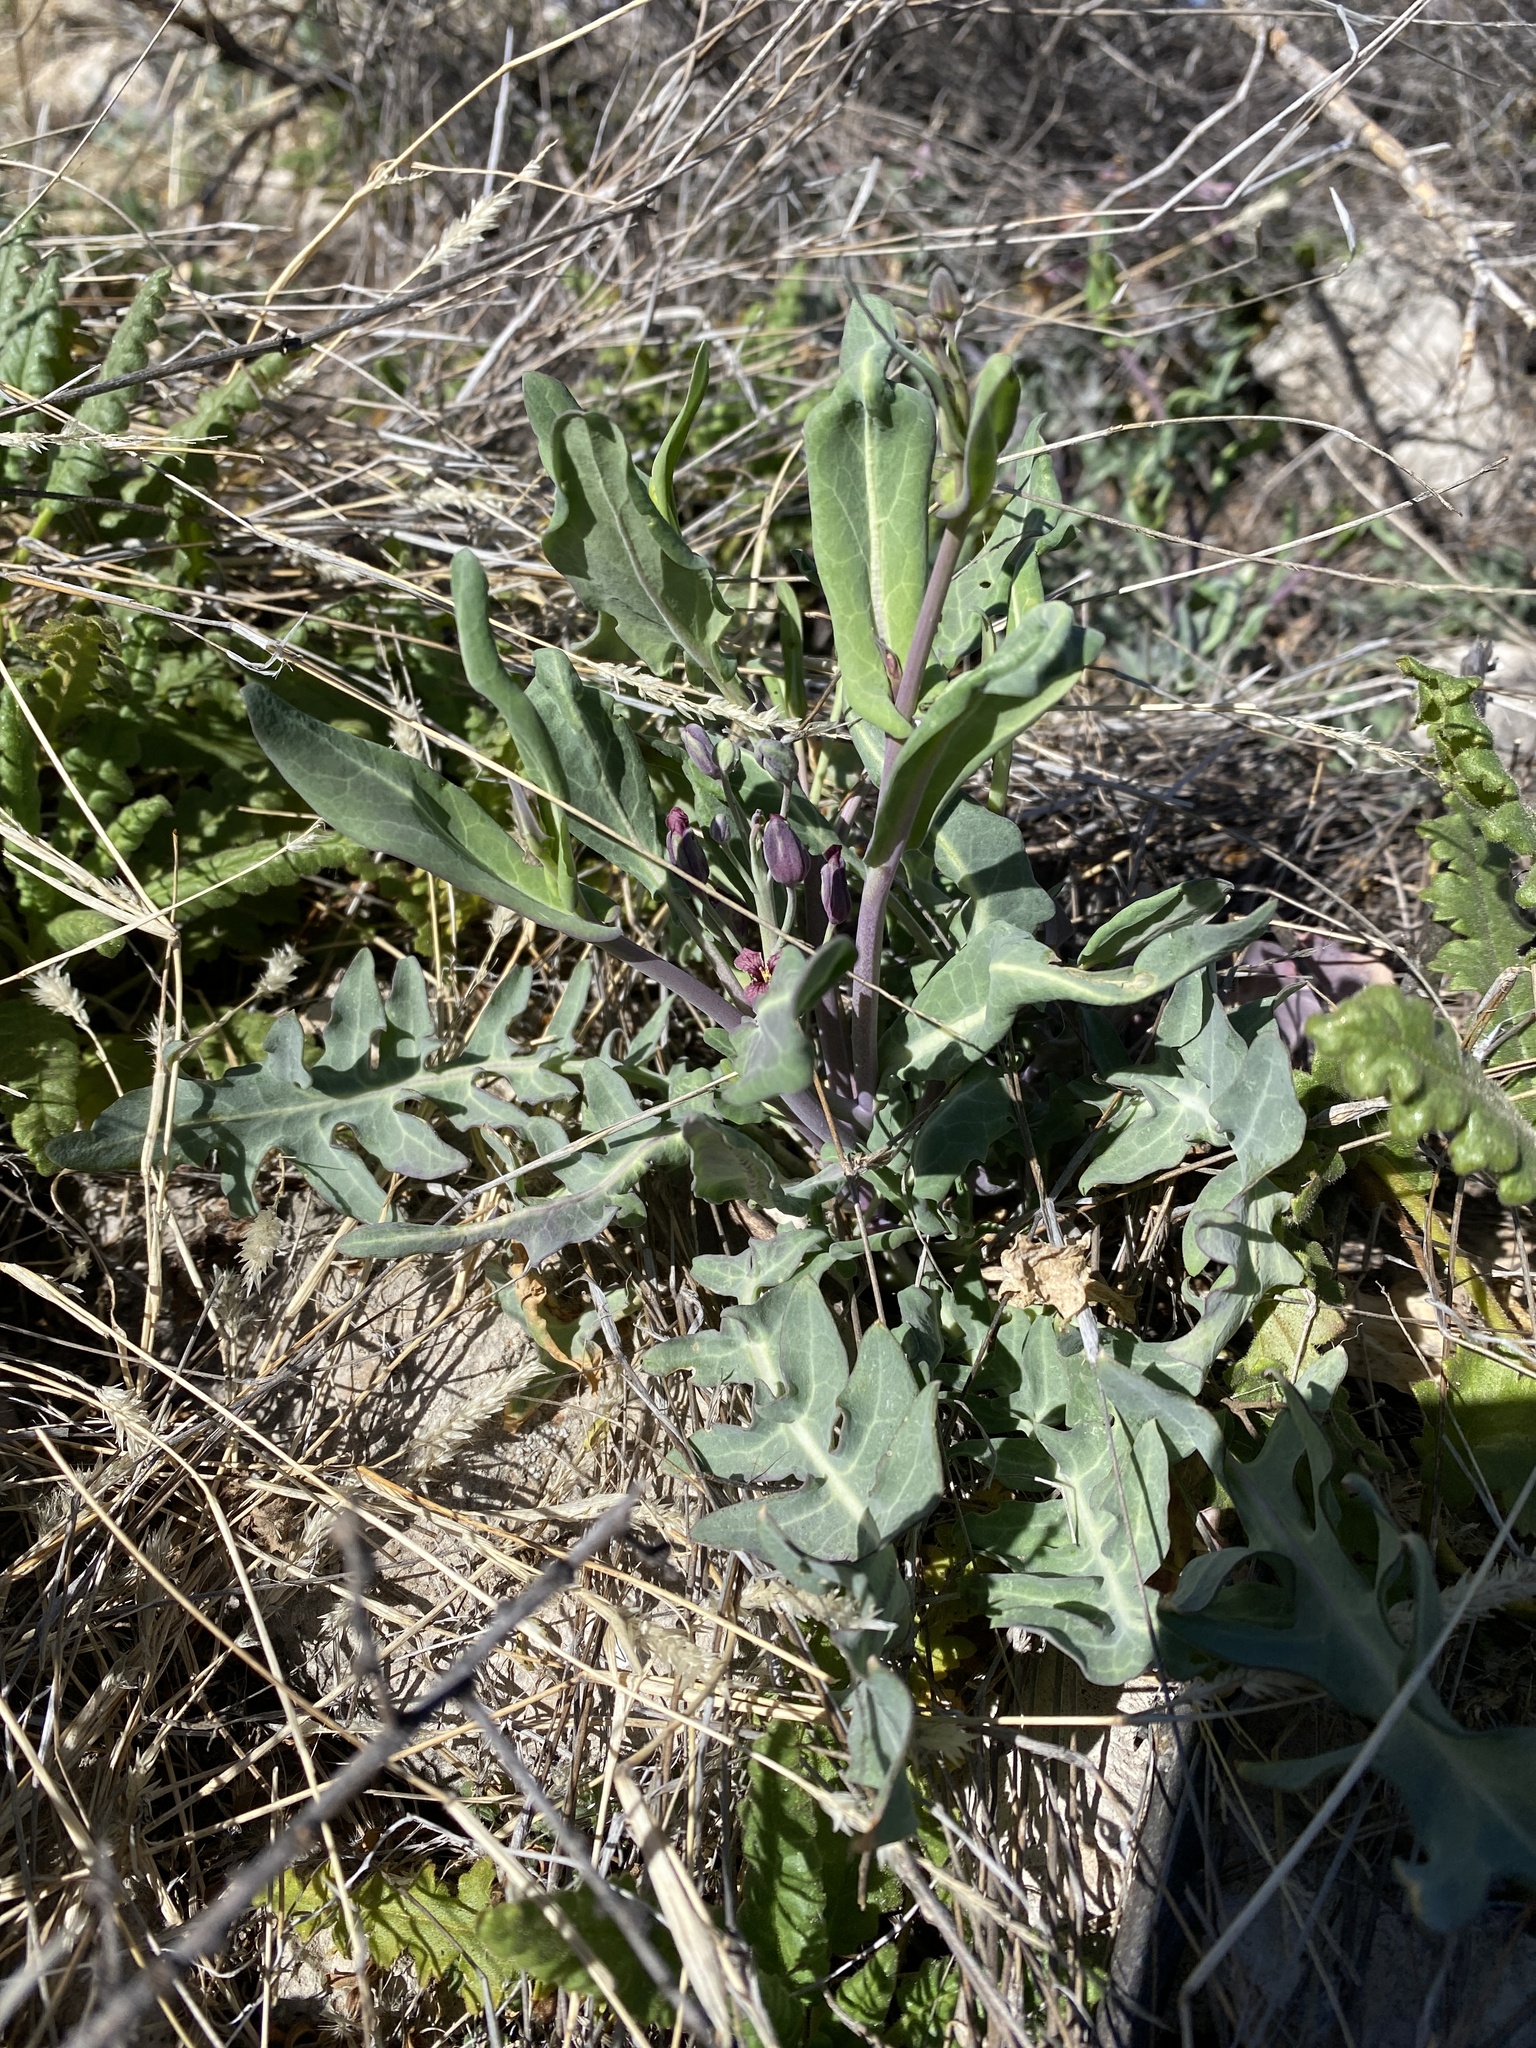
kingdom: Plantae
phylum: Tracheophyta
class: Magnoliopsida
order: Brassicales
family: Brassicaceae
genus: Streptanthus
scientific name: Streptanthus carinatus
